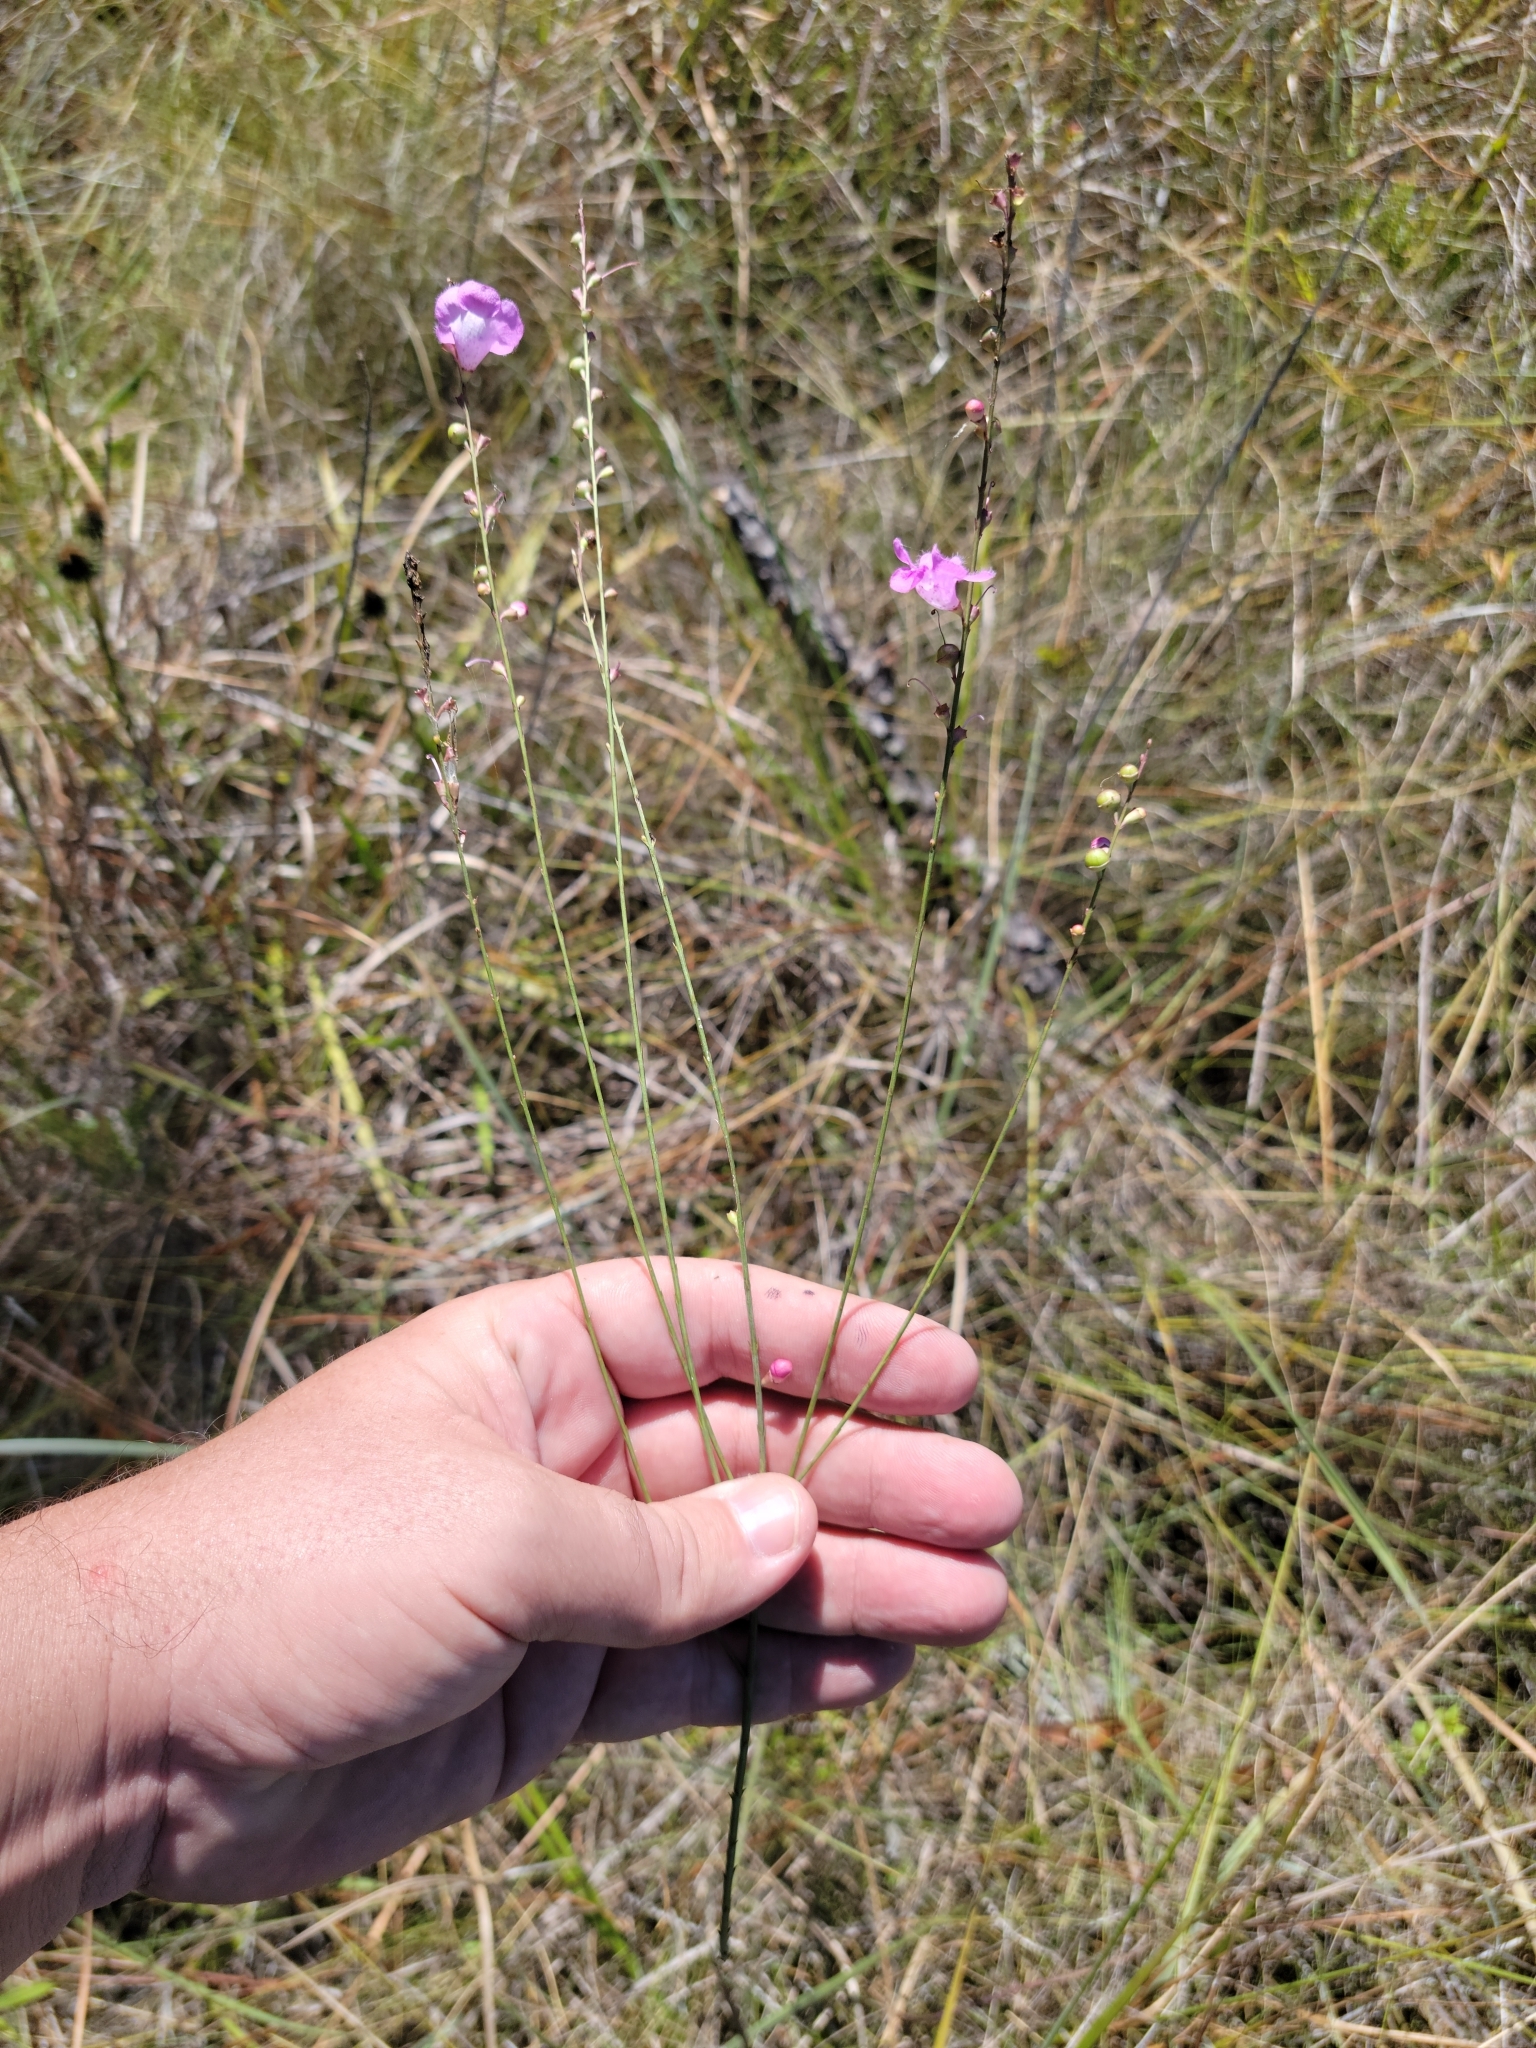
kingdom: Plantae
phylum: Tracheophyta
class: Magnoliopsida
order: Lamiales
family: Orobanchaceae
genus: Agalinis
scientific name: Agalinis aphylla
